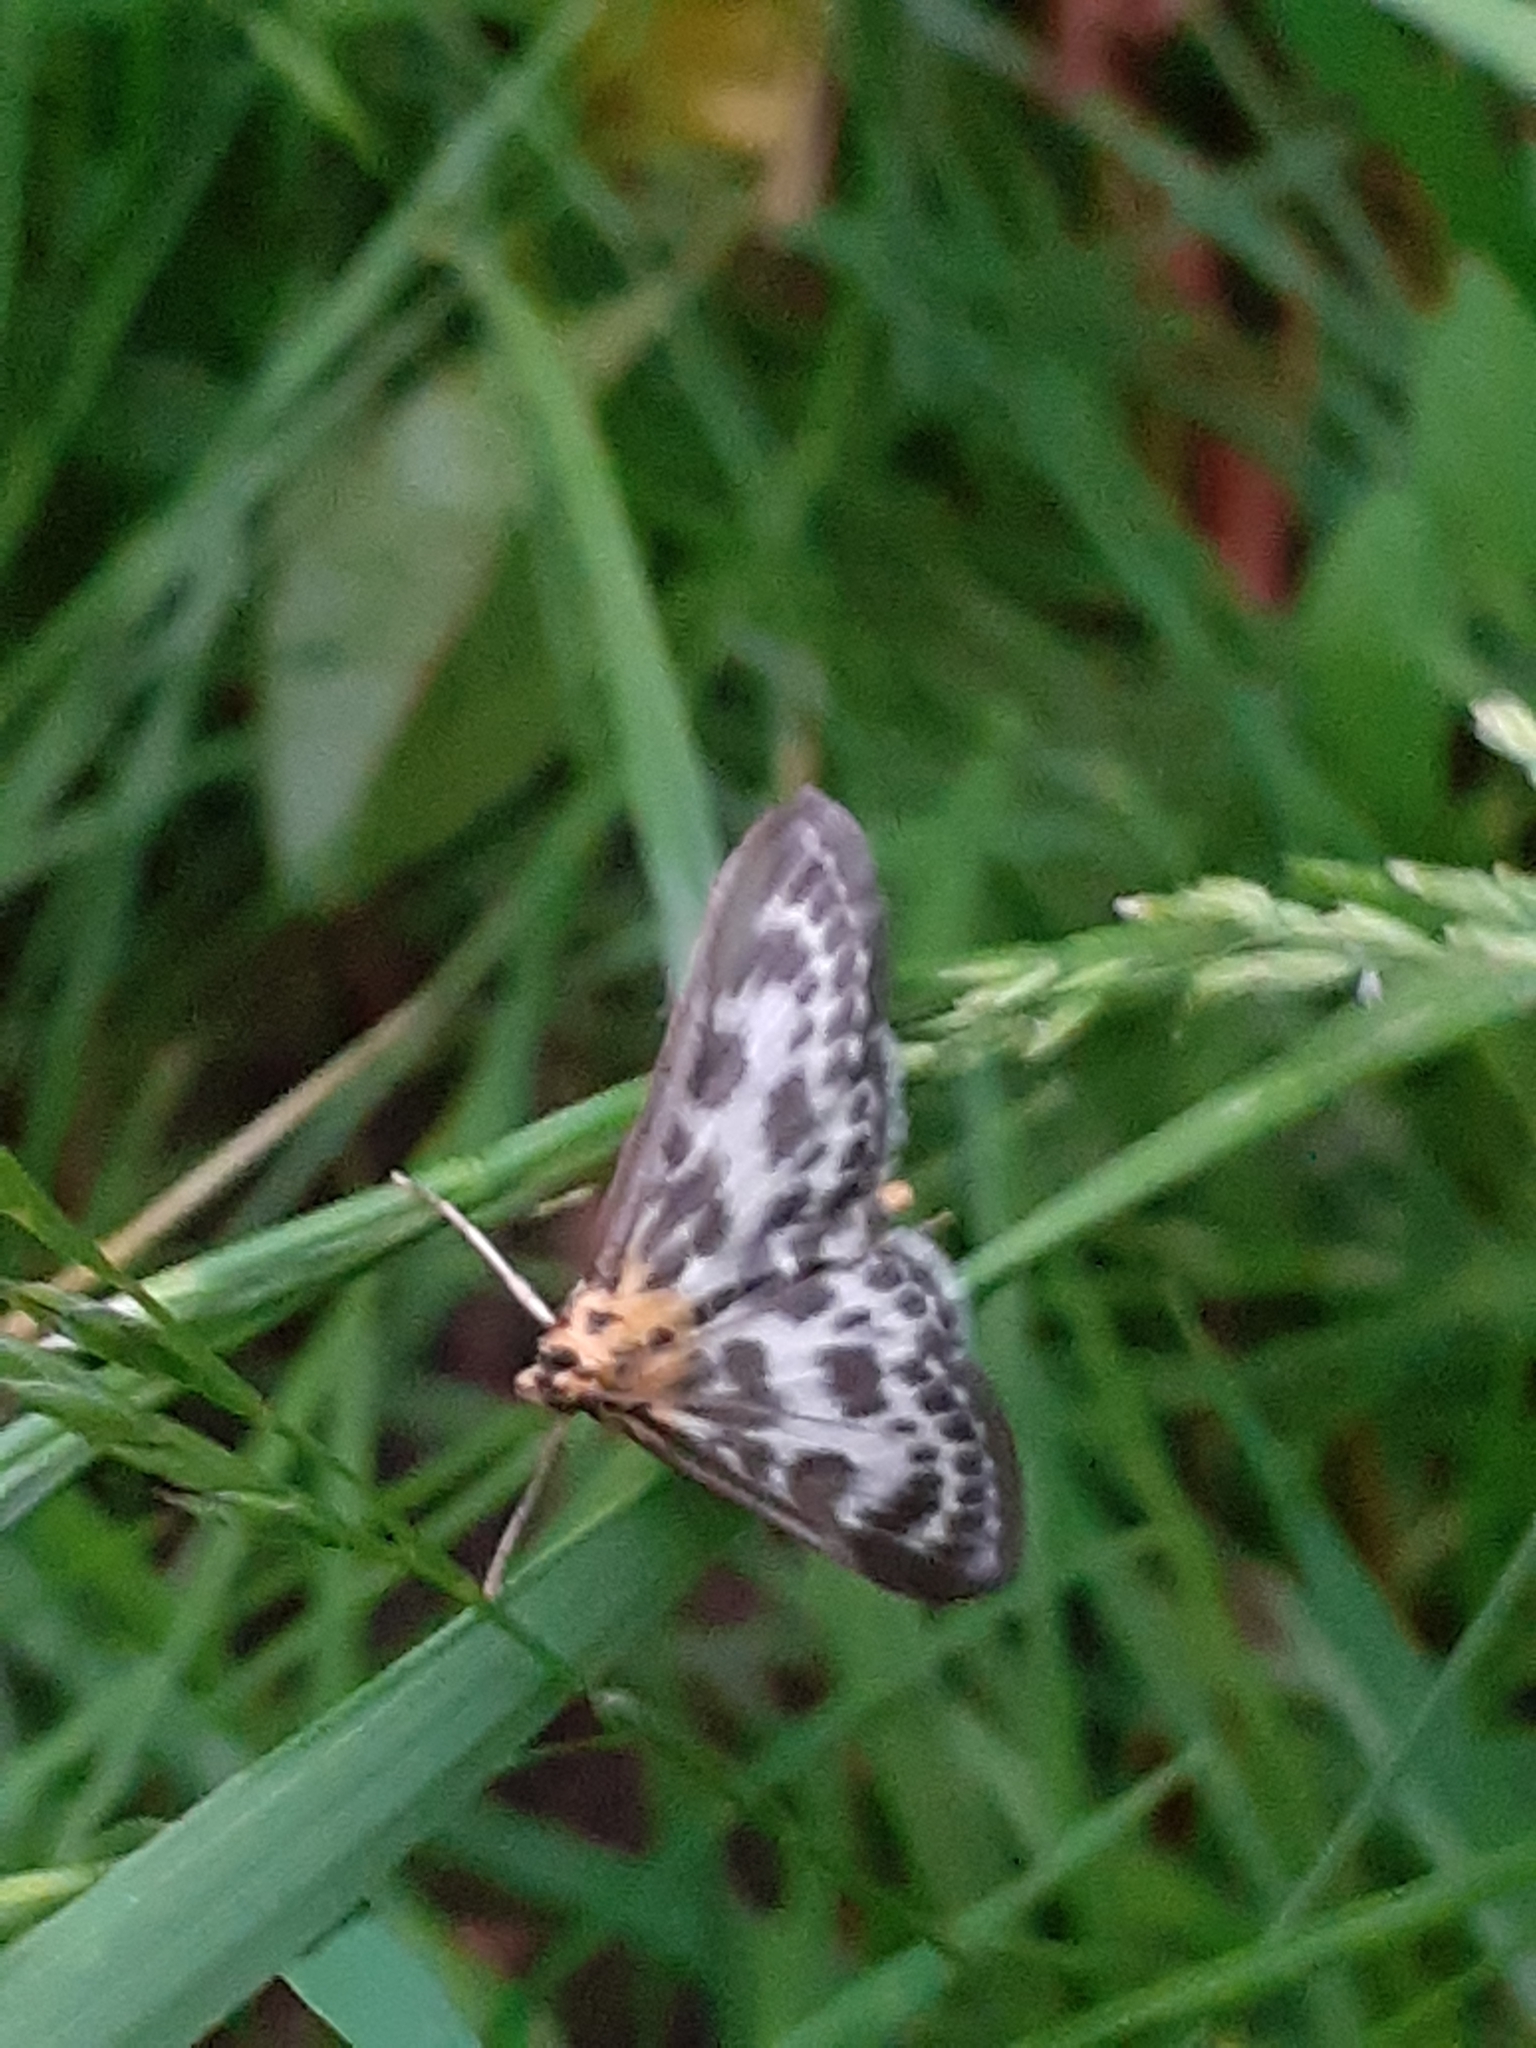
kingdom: Animalia
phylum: Arthropoda
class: Insecta
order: Lepidoptera
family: Crambidae
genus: Anania
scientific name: Anania hortulata
